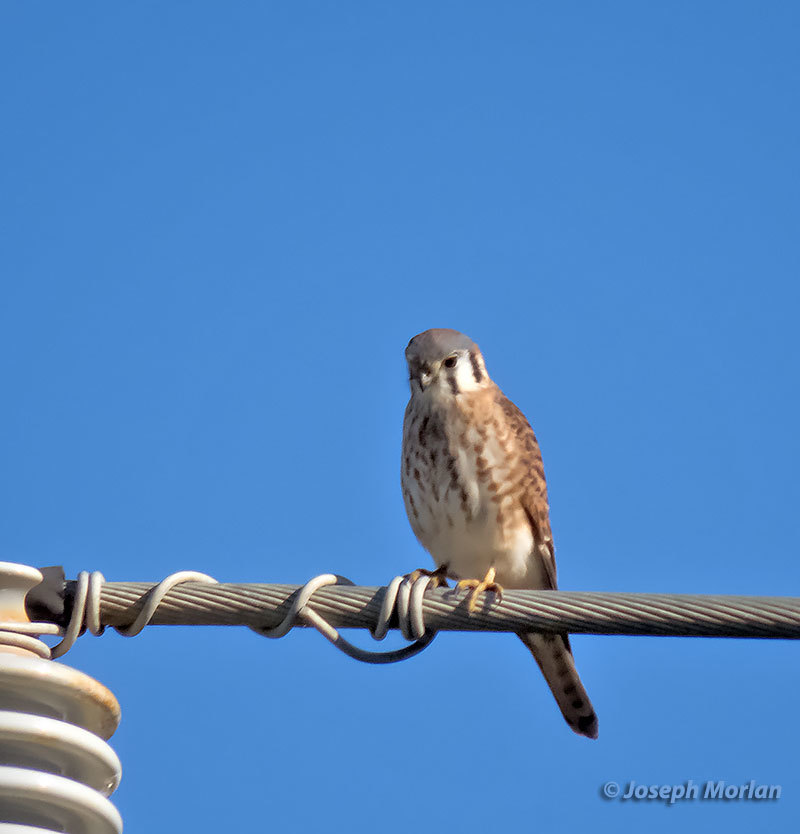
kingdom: Animalia
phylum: Chordata
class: Aves
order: Falconiformes
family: Falconidae
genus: Falco
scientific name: Falco sparverius
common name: American kestrel
